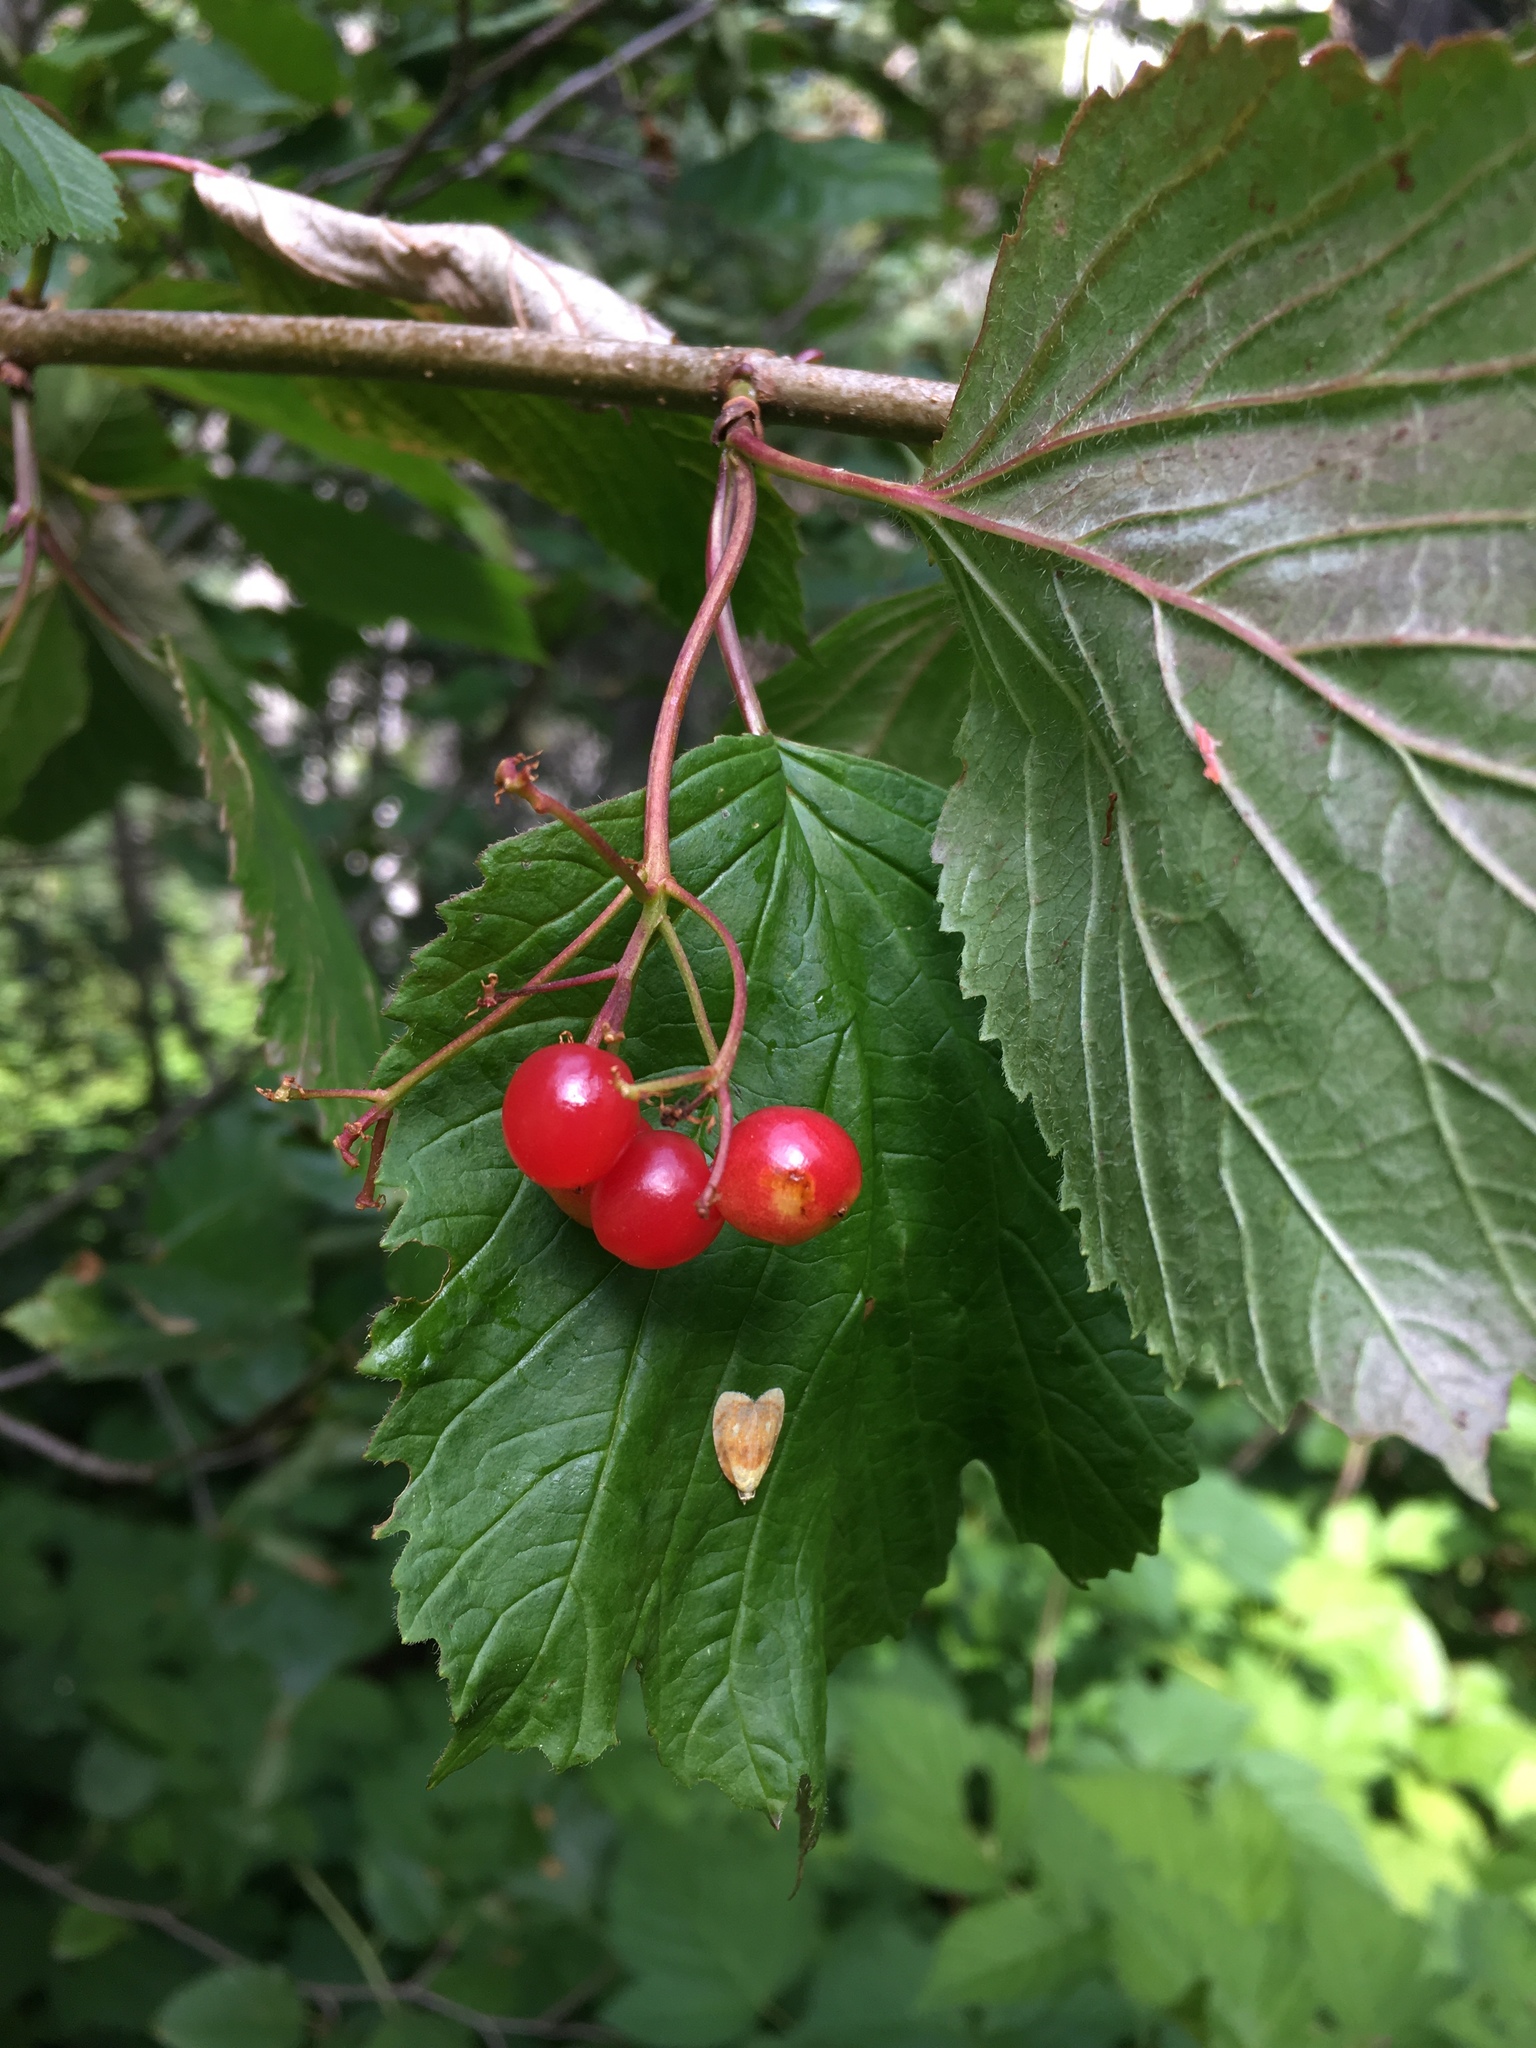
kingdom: Plantae
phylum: Tracheophyta
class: Magnoliopsida
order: Dipsacales
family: Viburnaceae
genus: Viburnum
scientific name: Viburnum edule
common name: Mooseberry
